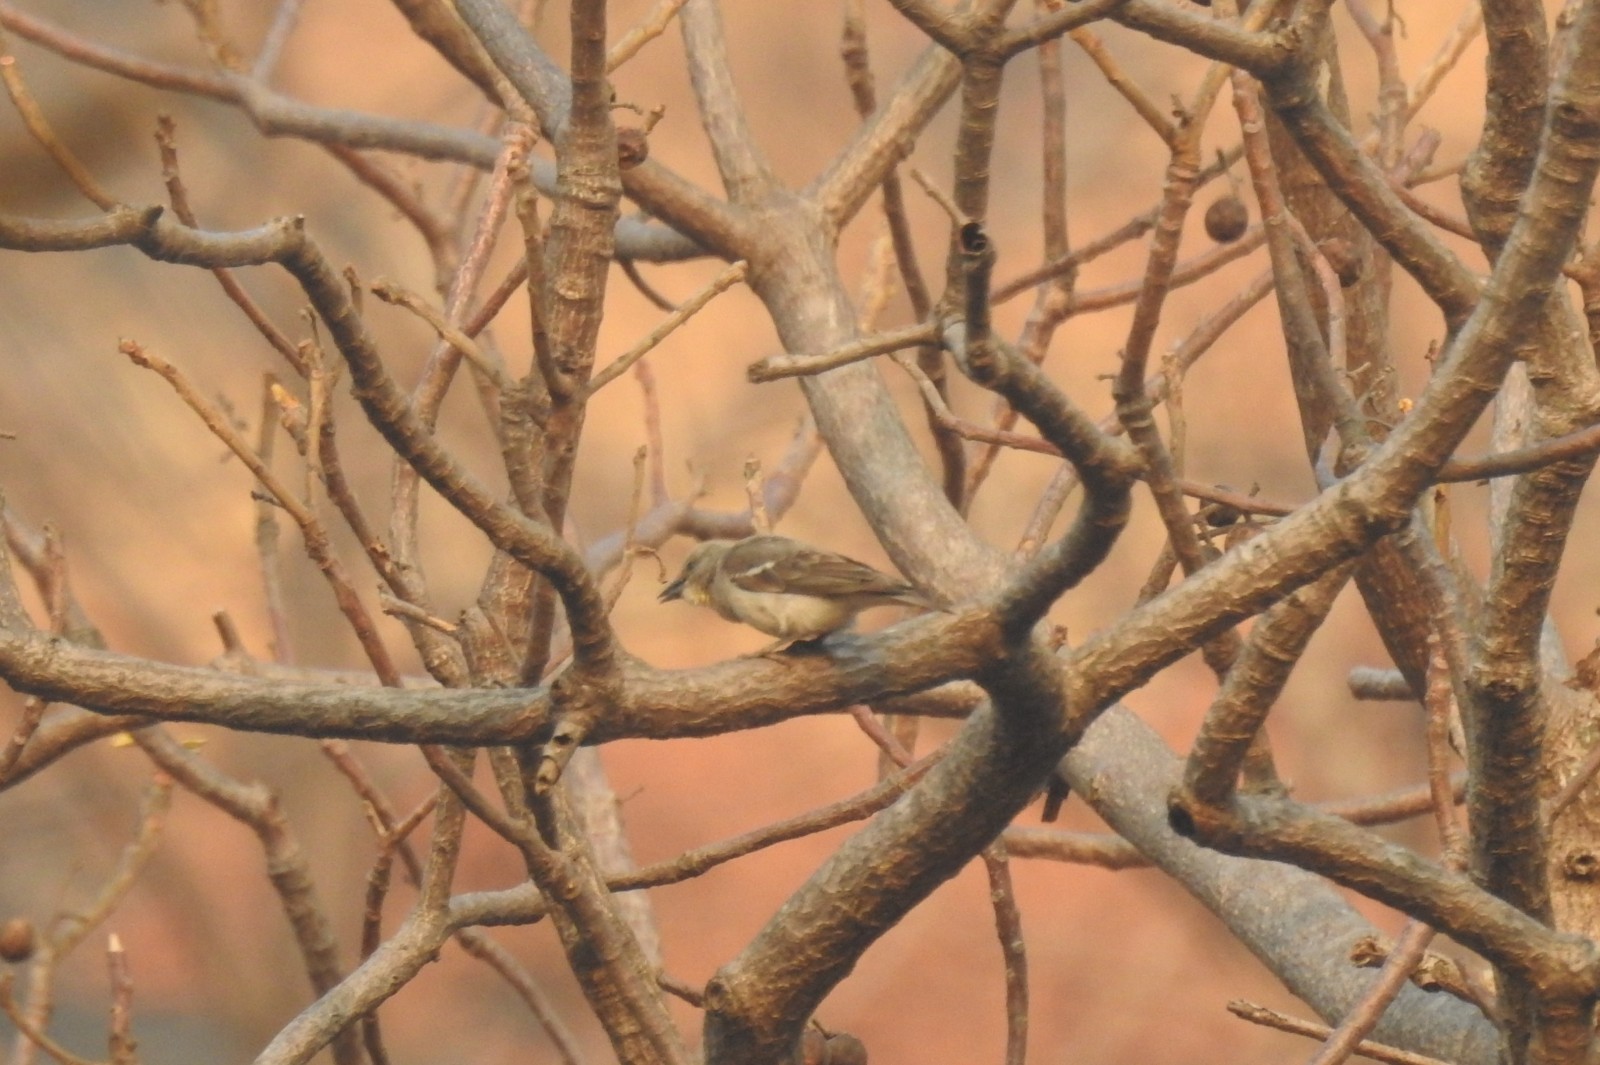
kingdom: Animalia
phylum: Chordata
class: Aves
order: Passeriformes
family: Passeridae
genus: Gymnoris
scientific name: Gymnoris xanthocollis
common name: Yellow-throated sparrow
